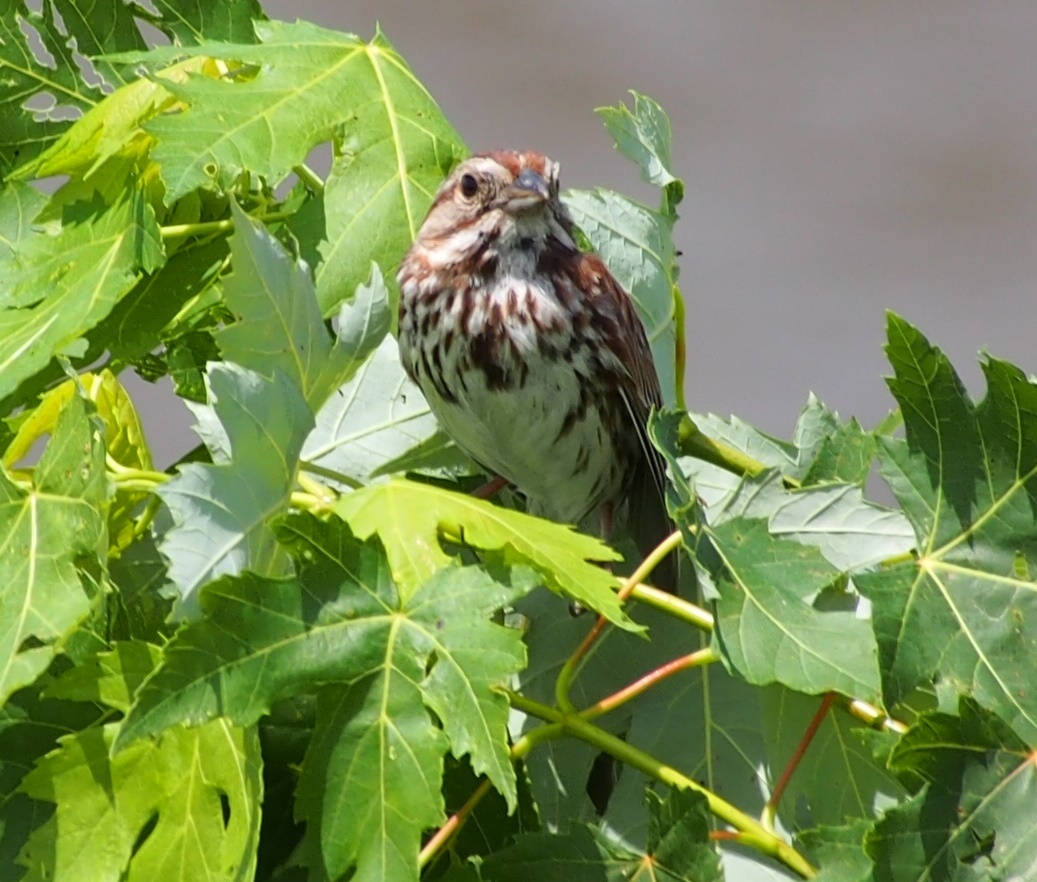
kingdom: Animalia
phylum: Chordata
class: Aves
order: Passeriformes
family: Passerellidae
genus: Melospiza
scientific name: Melospiza melodia
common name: Song sparrow
